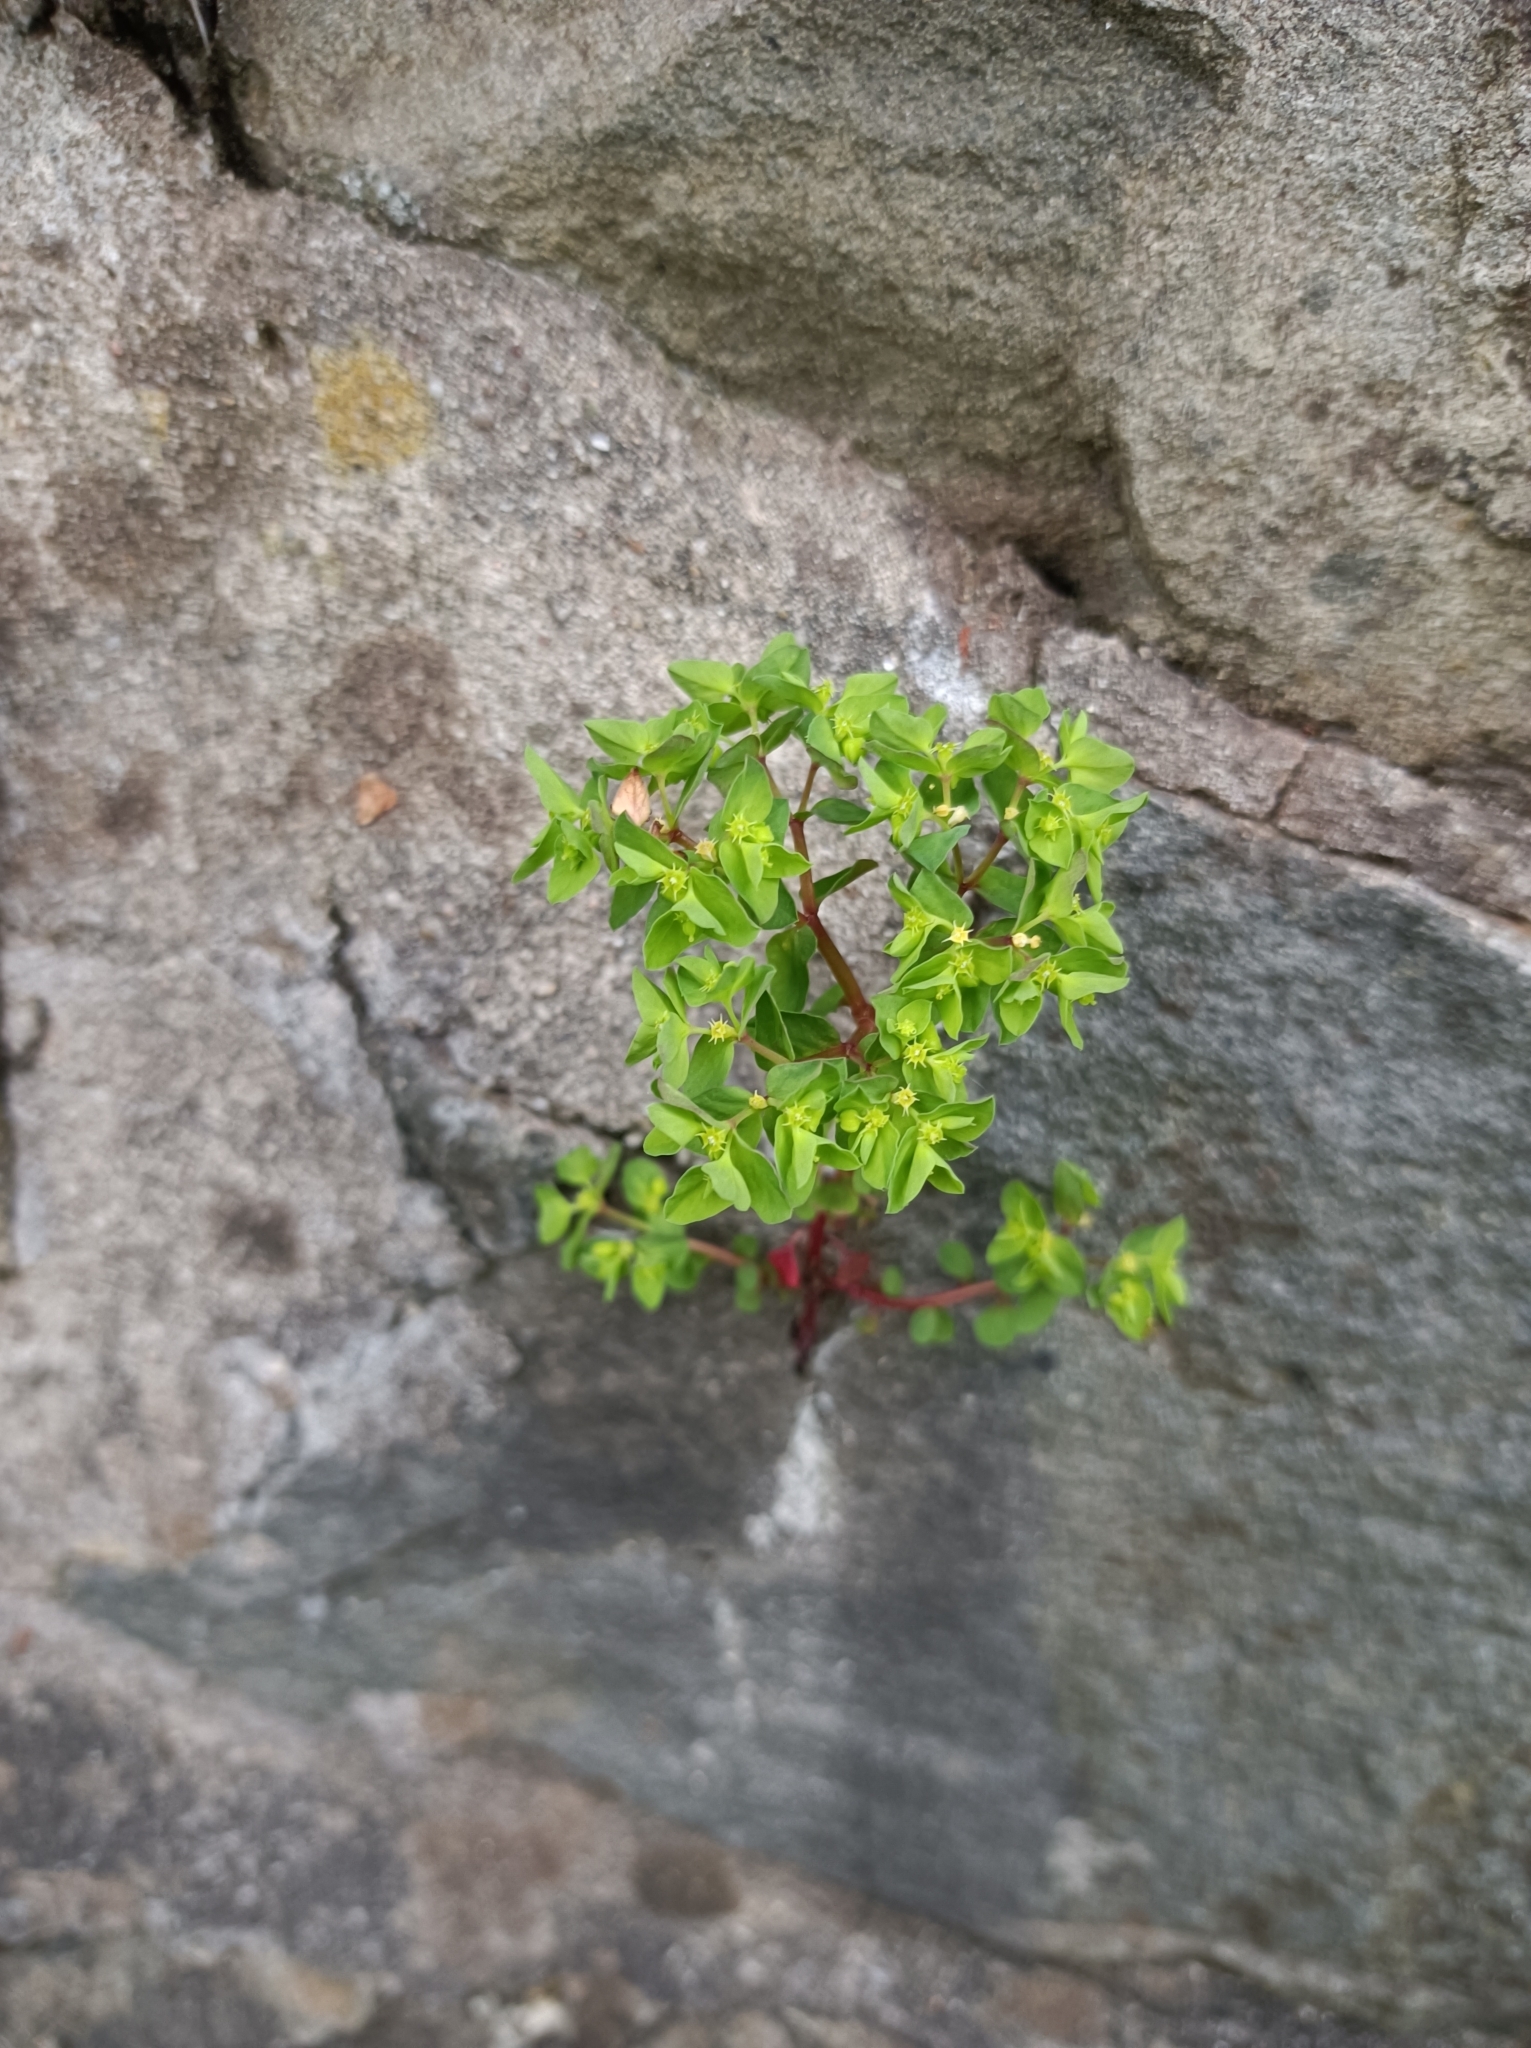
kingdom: Plantae
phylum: Tracheophyta
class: Magnoliopsida
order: Malpighiales
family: Euphorbiaceae
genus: Euphorbia
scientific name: Euphorbia peplus
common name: Petty spurge
